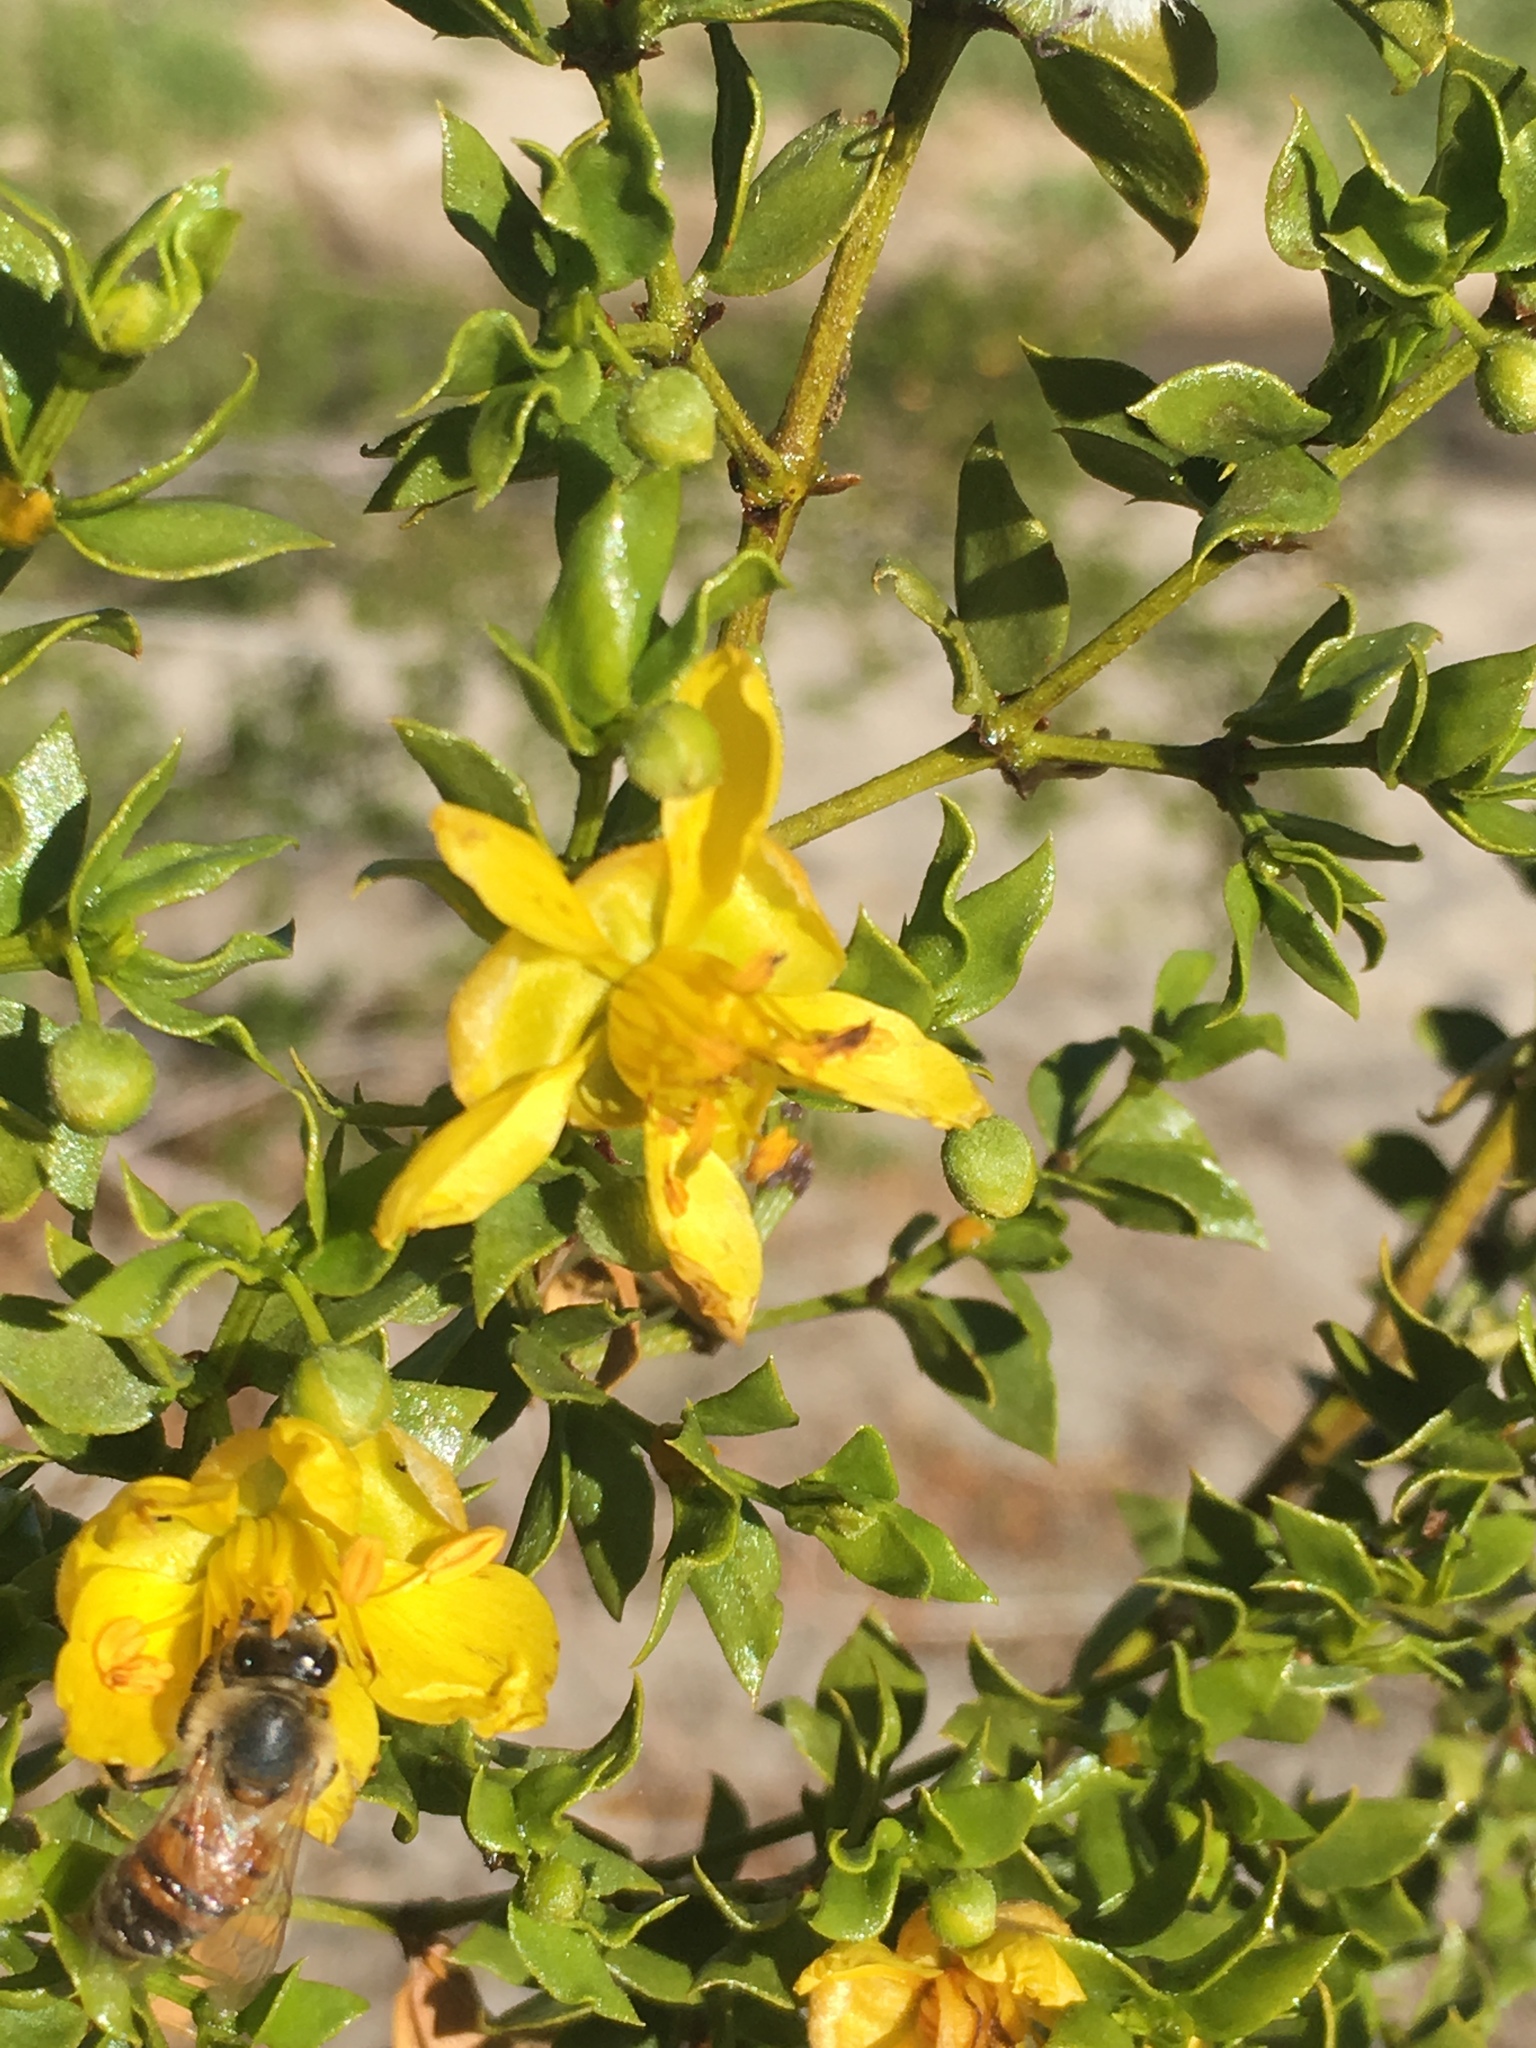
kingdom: Plantae
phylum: Tracheophyta
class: Magnoliopsida
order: Zygophyllales
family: Zygophyllaceae
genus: Larrea
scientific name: Larrea tridentata
